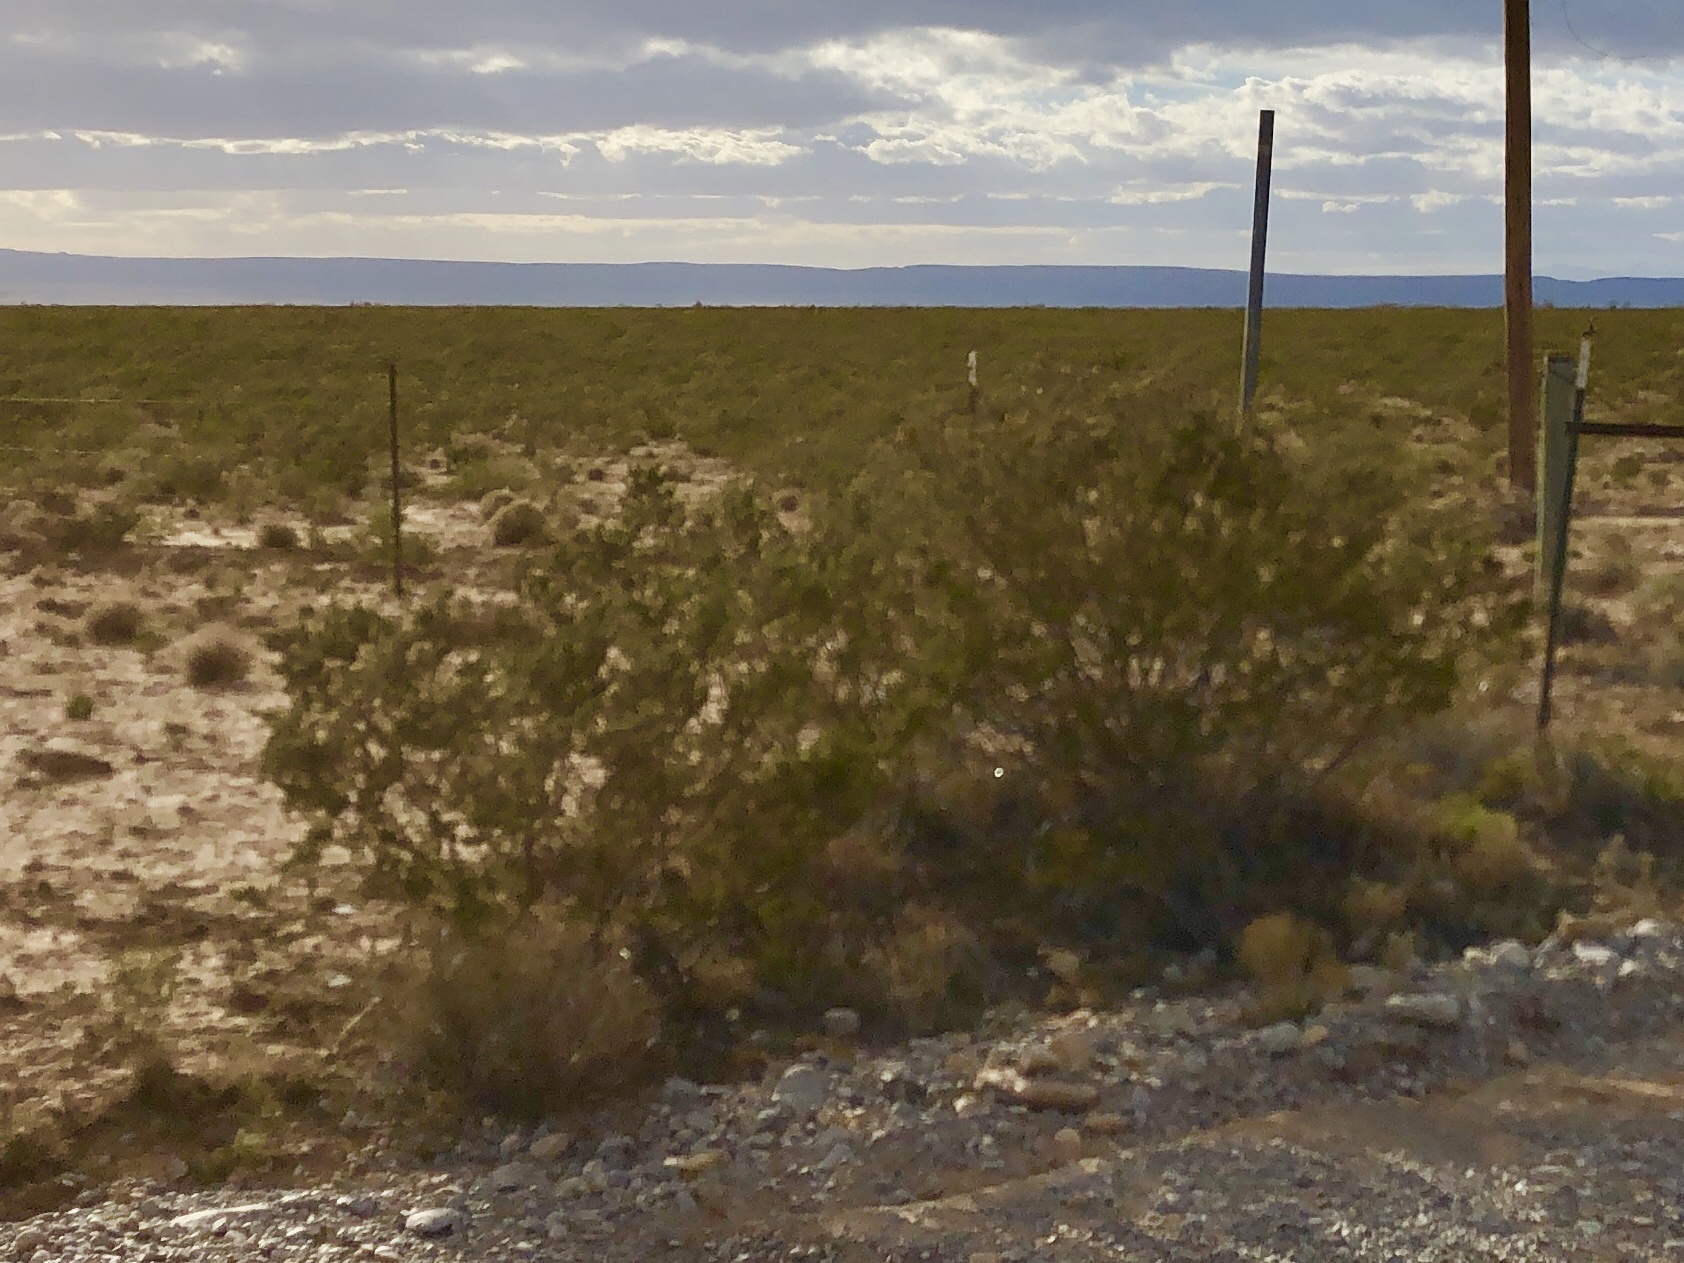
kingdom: Plantae
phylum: Tracheophyta
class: Magnoliopsida
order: Zygophyllales
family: Zygophyllaceae
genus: Larrea
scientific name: Larrea tridentata
